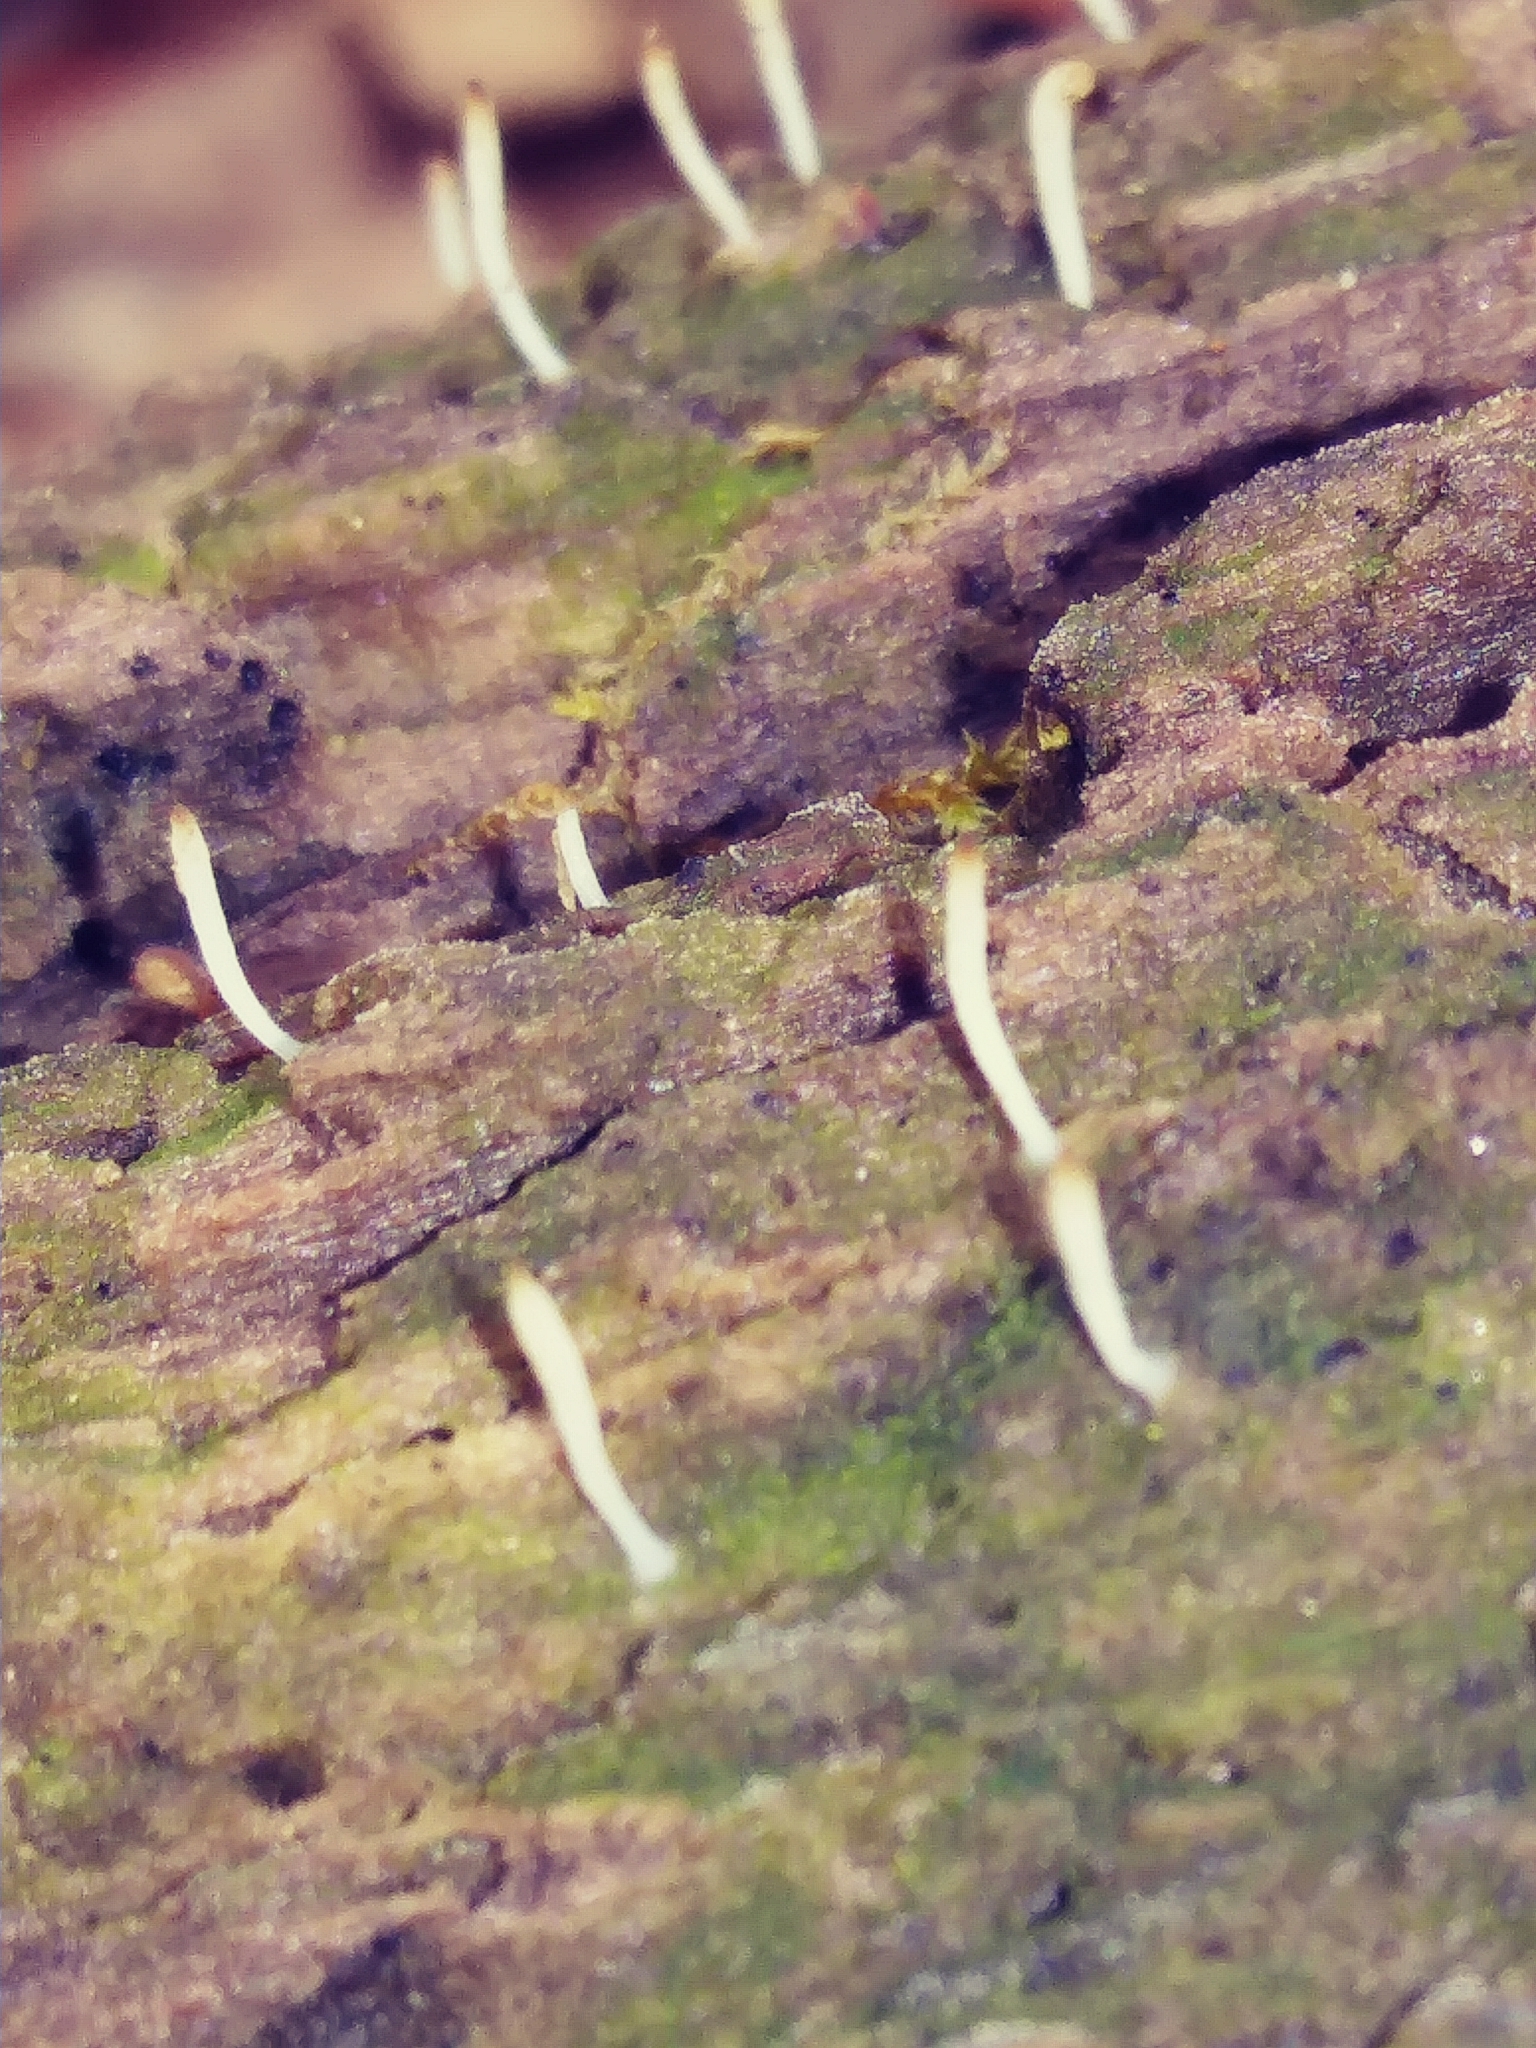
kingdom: Fungi
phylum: Basidiomycota
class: Agaricomycetes
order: Cantharellales
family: Hydnaceae
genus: Multiclavula
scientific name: Multiclavula mucida
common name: White green-algae coral
